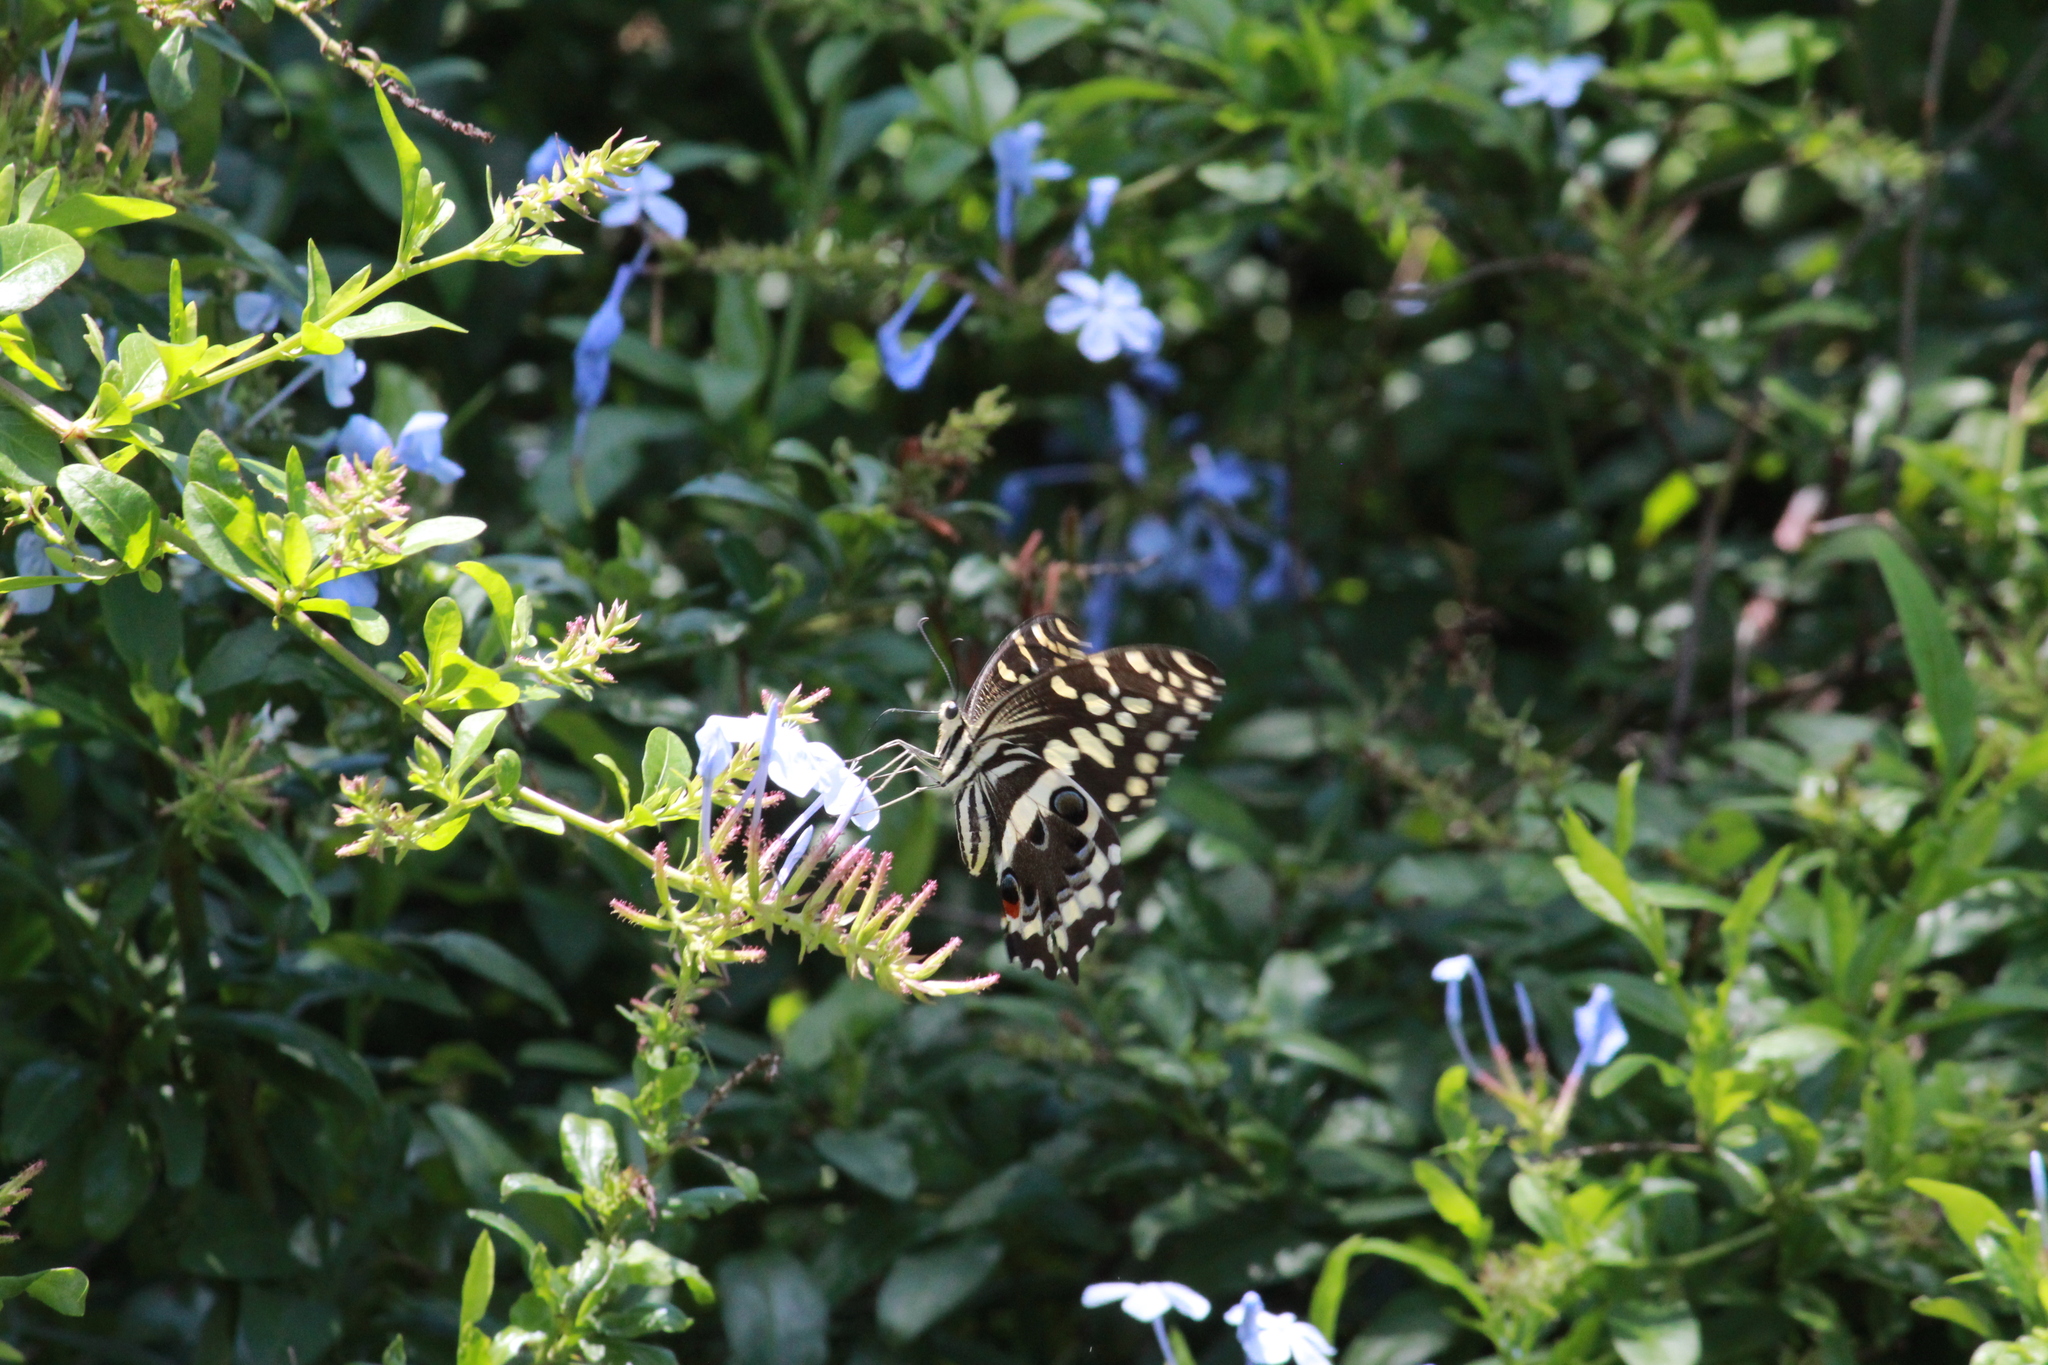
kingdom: Animalia
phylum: Arthropoda
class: Insecta
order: Lepidoptera
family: Papilionidae
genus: Papilio
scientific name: Papilio demodocus
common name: Christmas butterfly
